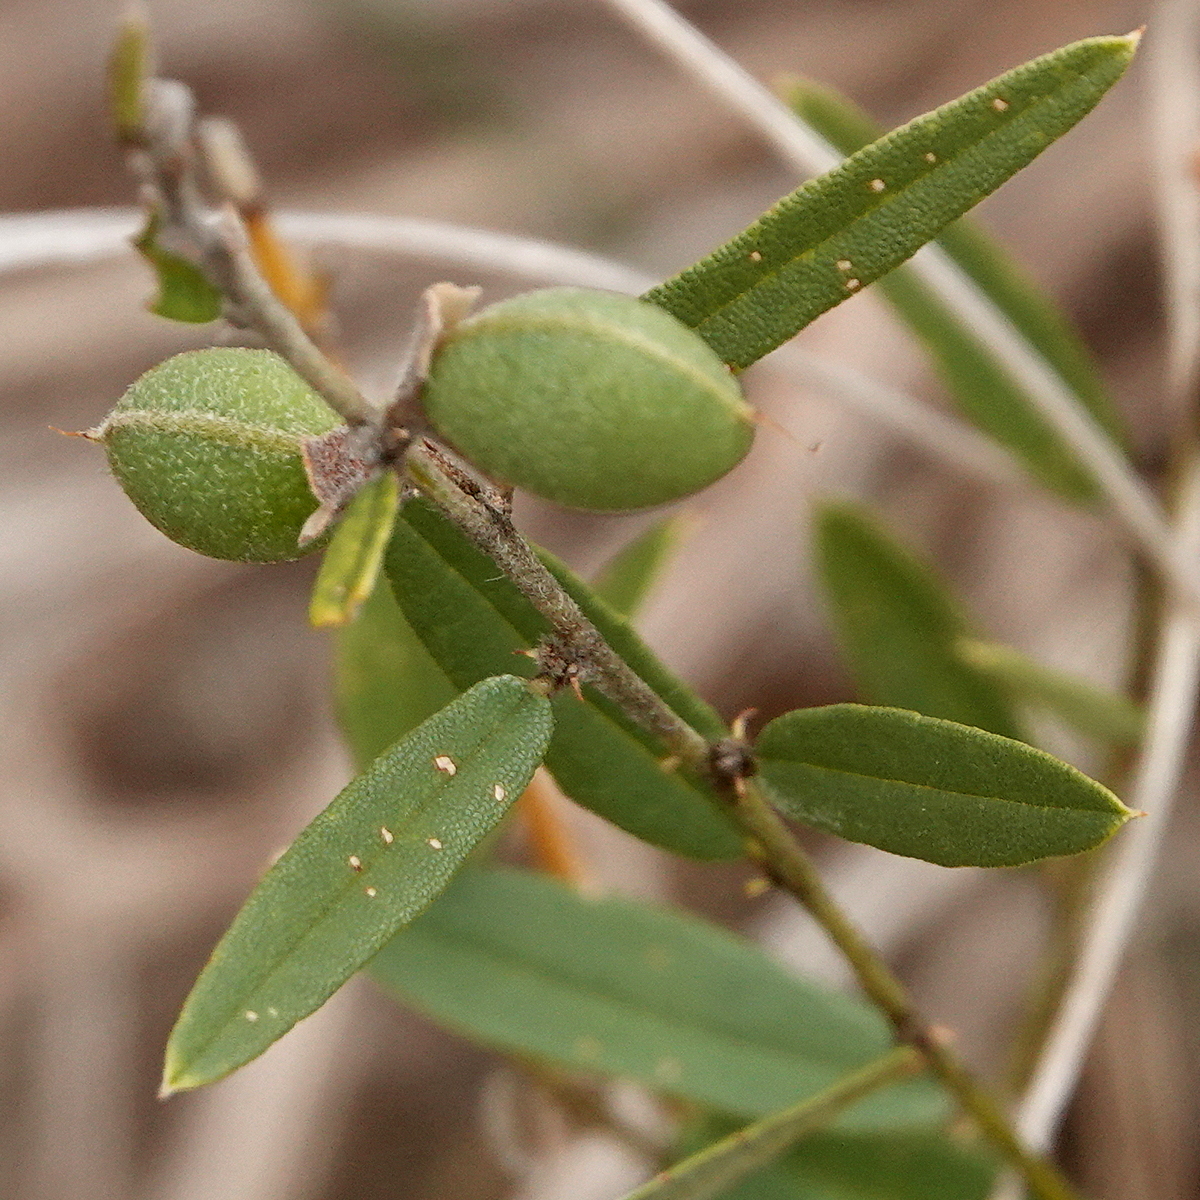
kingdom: Plantae
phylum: Tracheophyta
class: Magnoliopsida
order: Fabales
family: Fabaceae
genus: Hovea
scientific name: Hovea heterophylla
